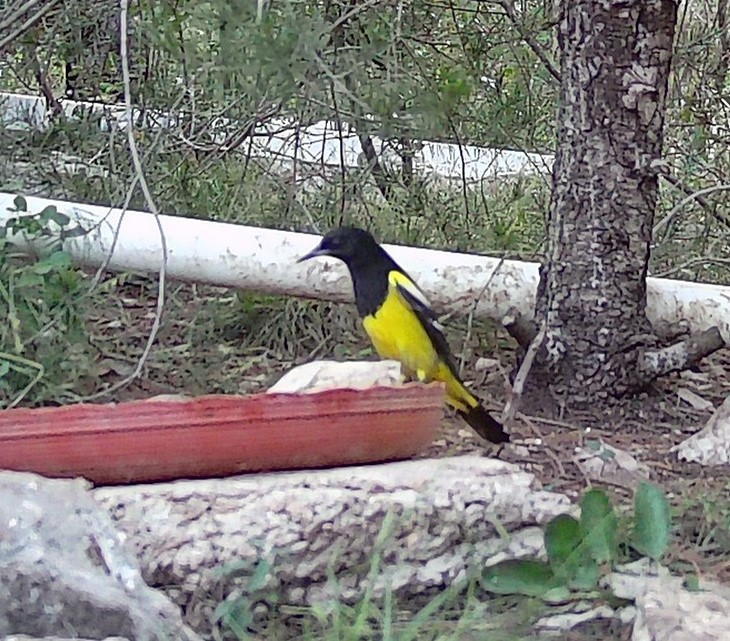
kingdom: Animalia
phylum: Chordata
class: Aves
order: Passeriformes
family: Icteridae
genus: Icterus
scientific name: Icterus parisorum
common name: Scott's oriole
